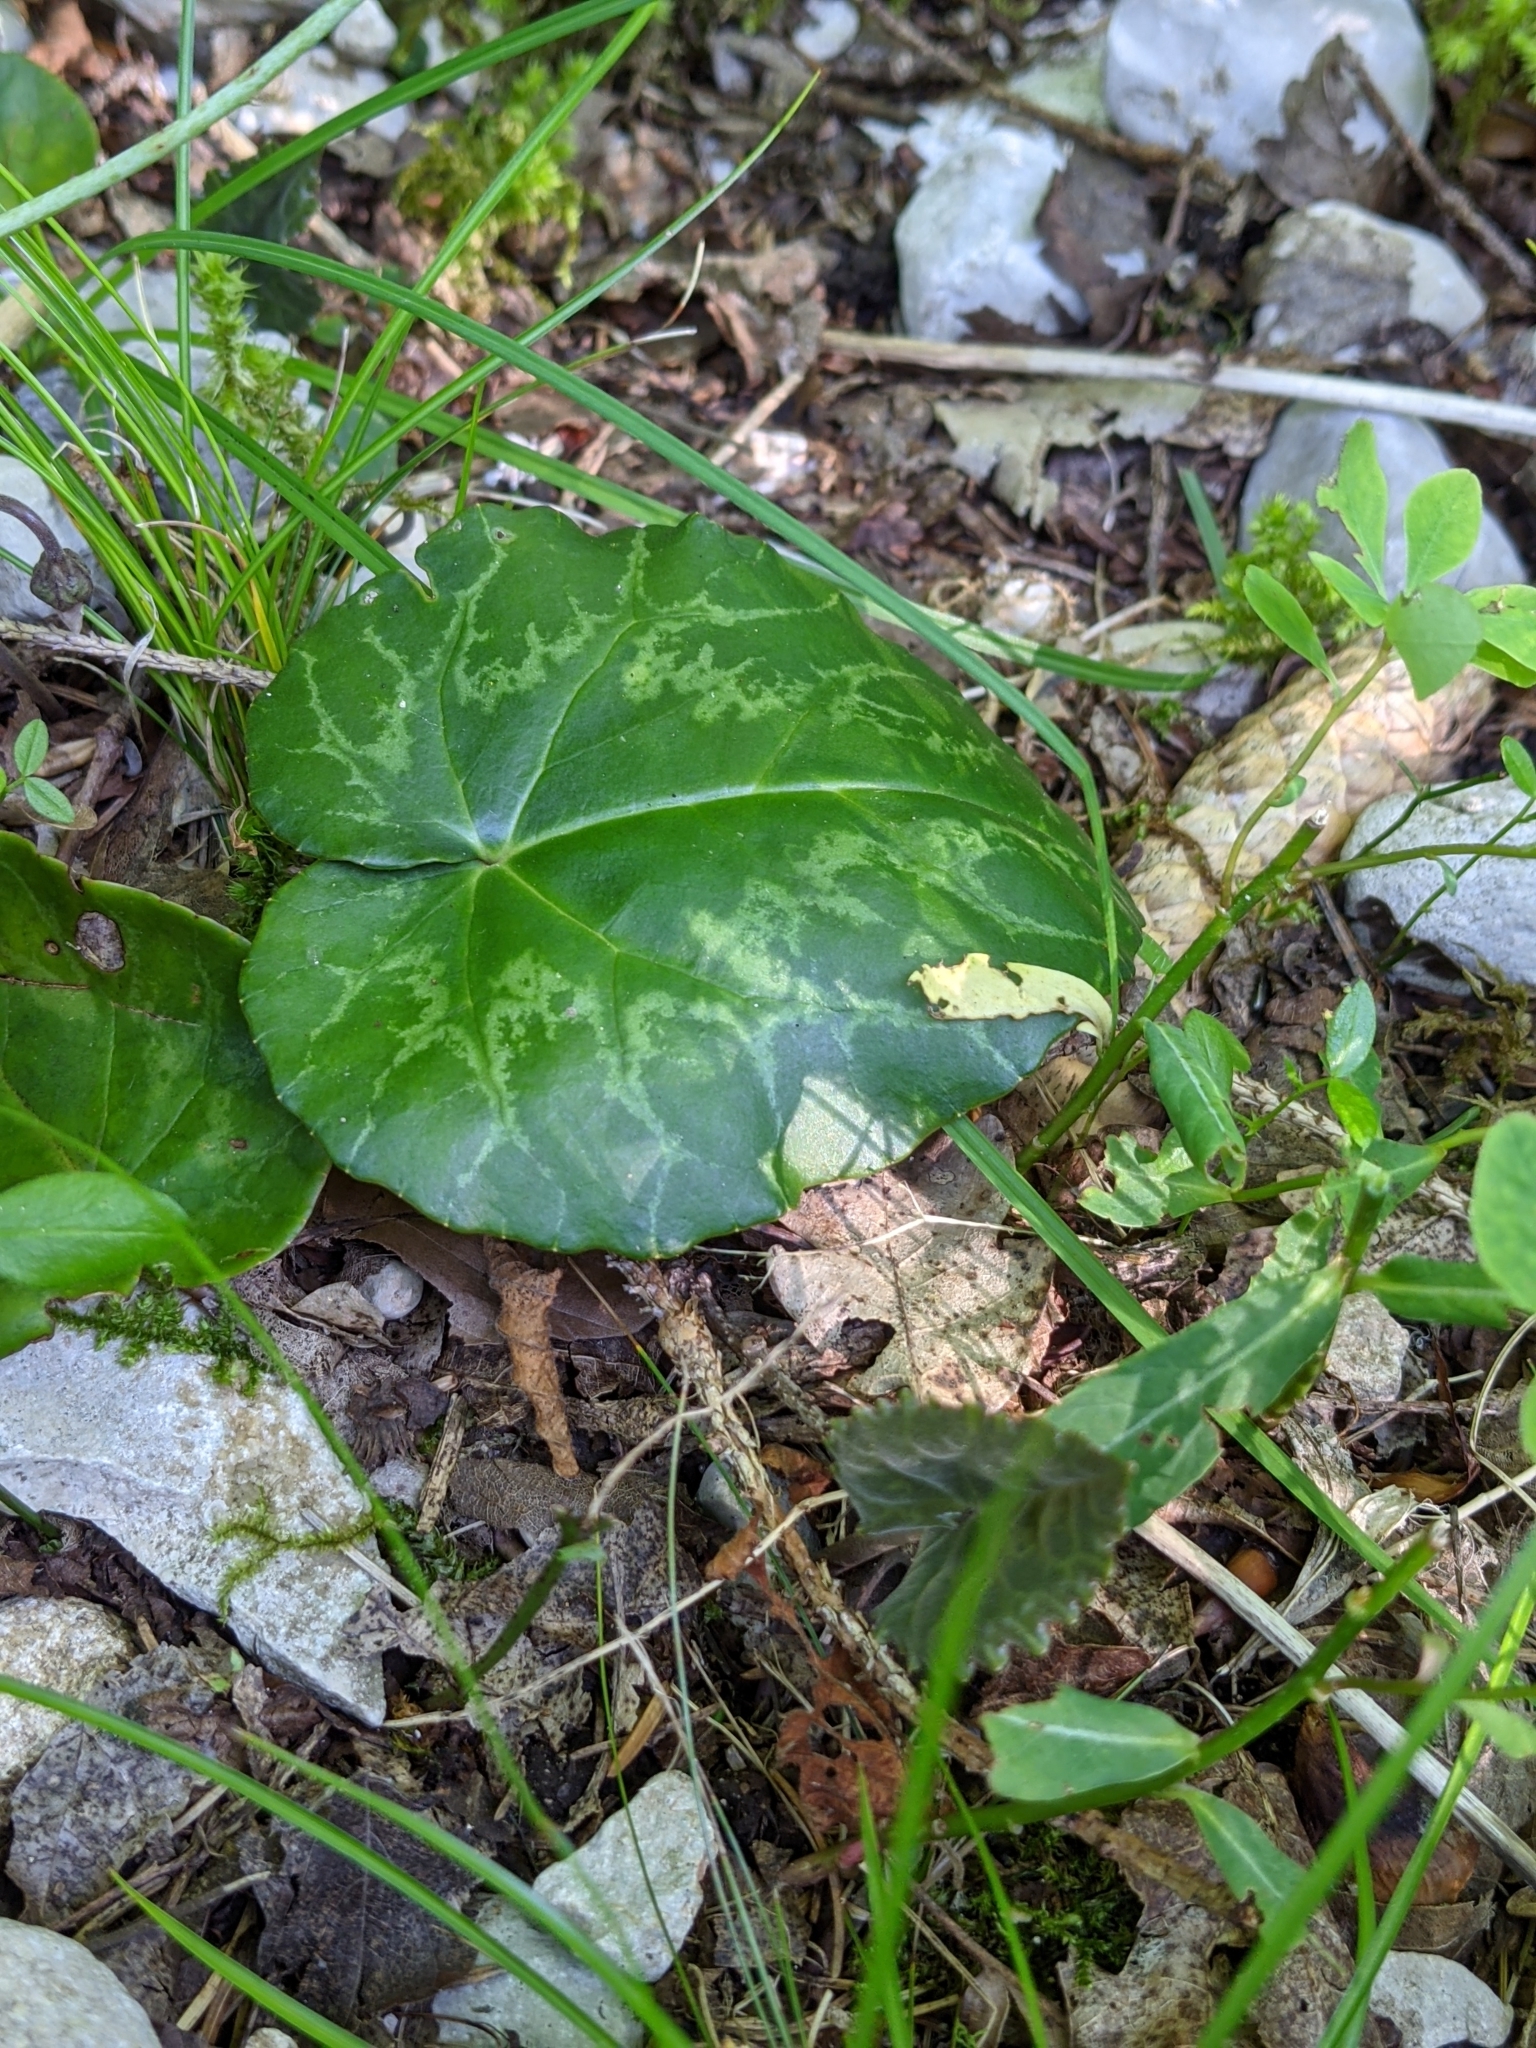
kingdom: Plantae
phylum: Tracheophyta
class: Magnoliopsida
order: Ericales
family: Primulaceae
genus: Cyclamen
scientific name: Cyclamen purpurascens
